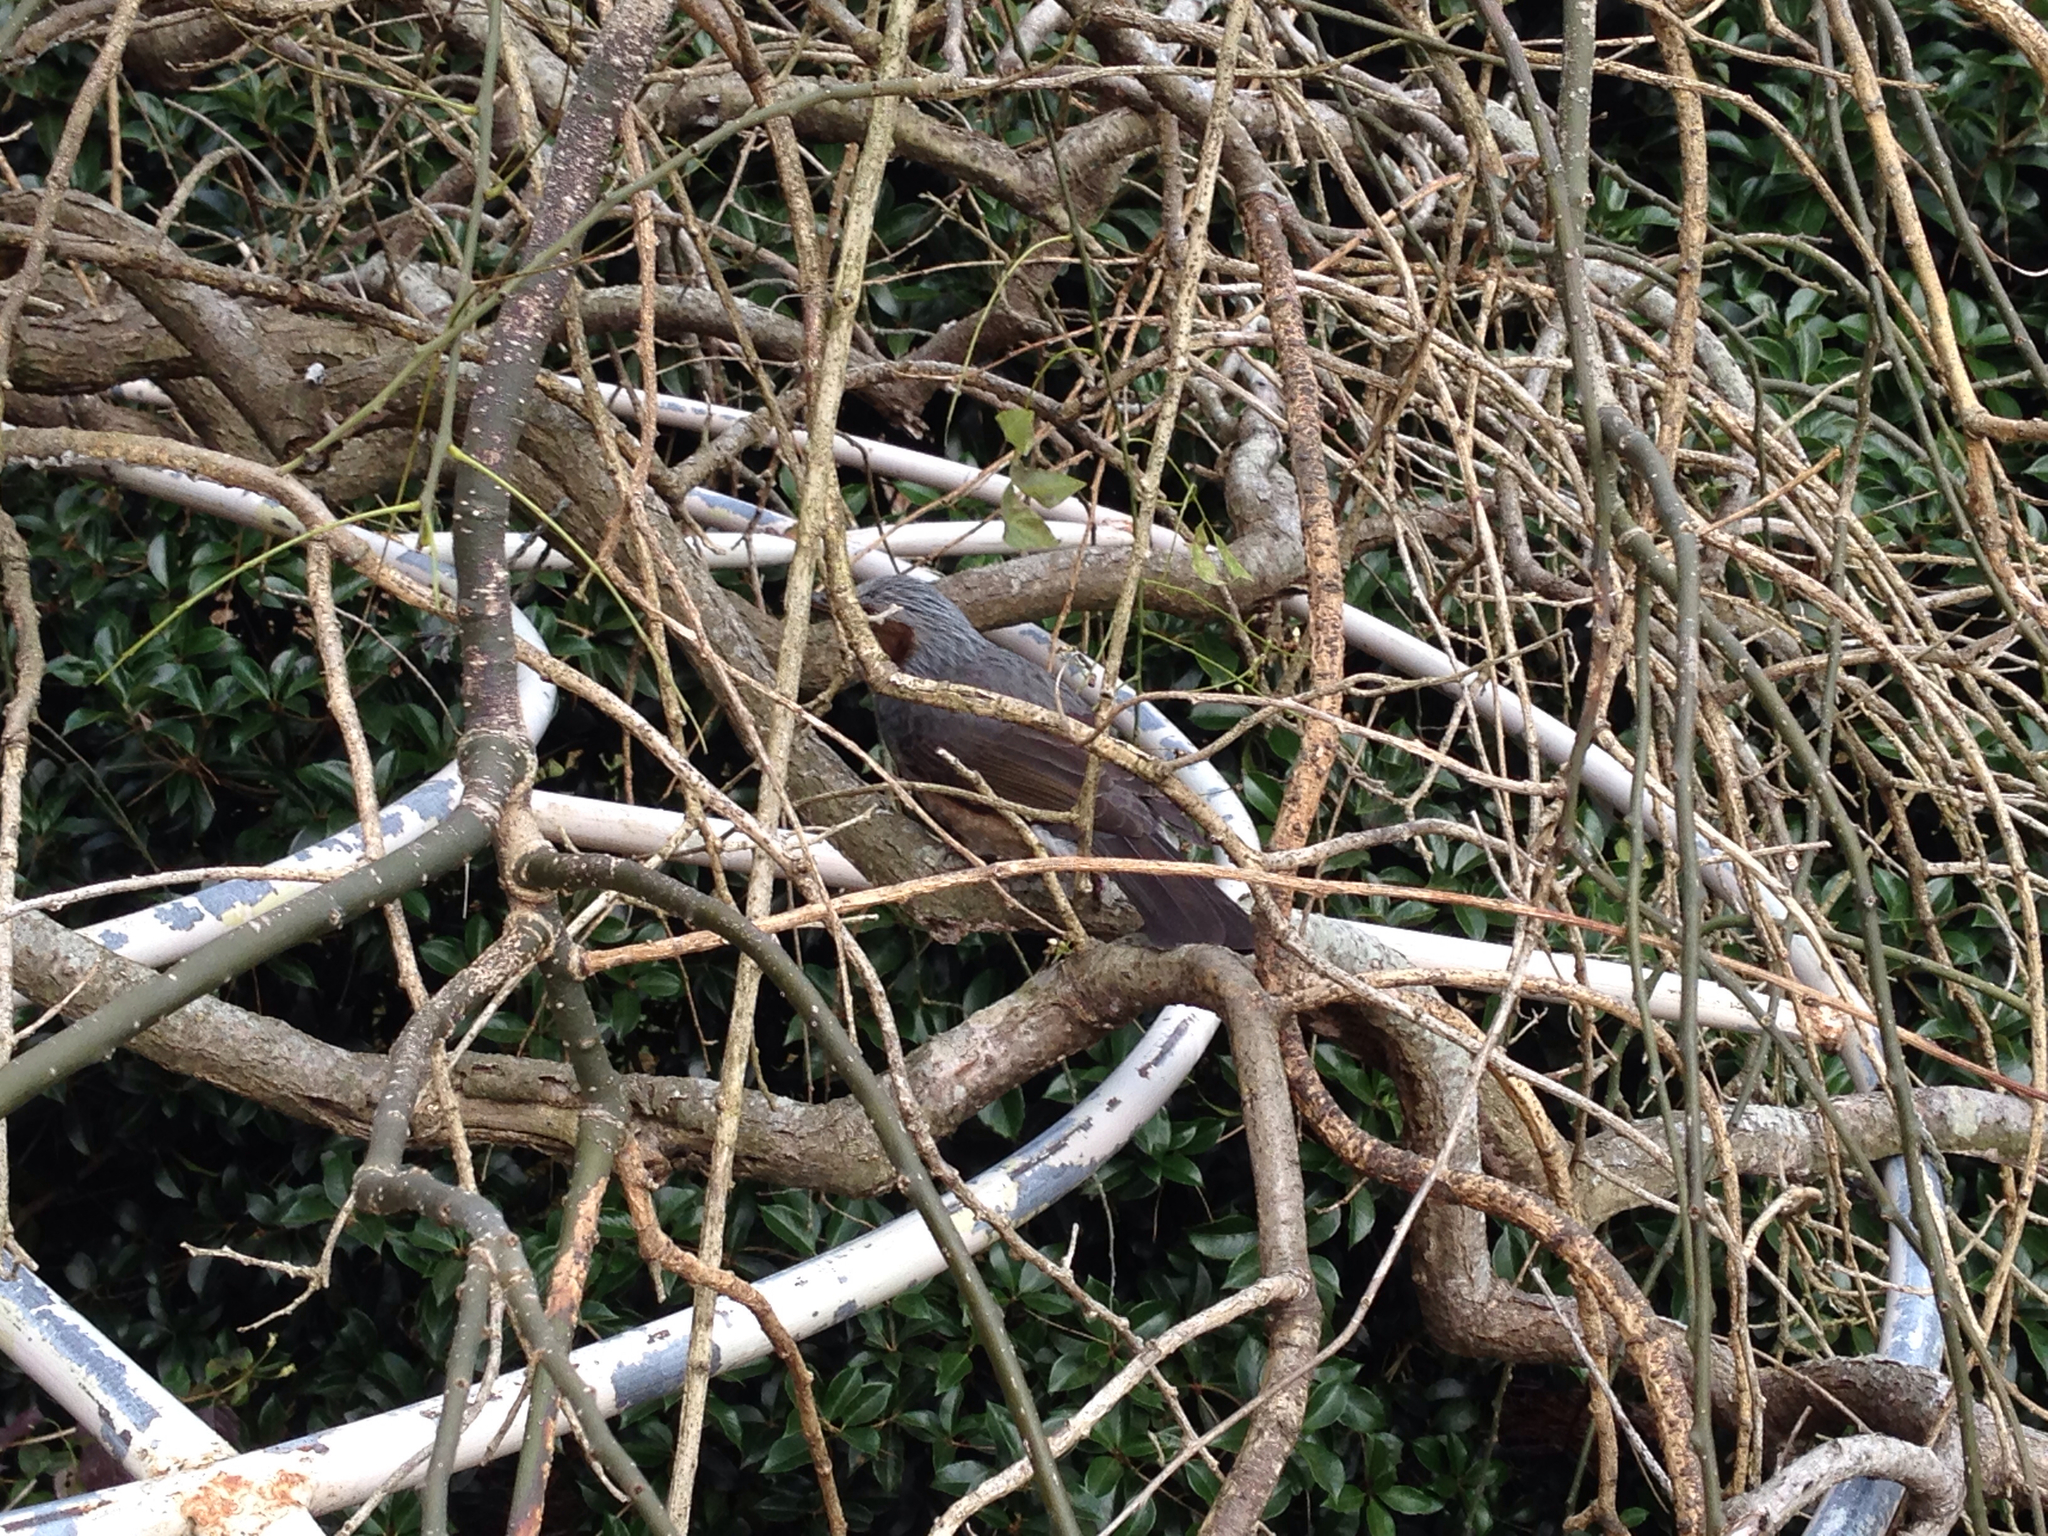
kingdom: Animalia
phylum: Chordata
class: Aves
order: Passeriformes
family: Pycnonotidae
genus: Hypsipetes
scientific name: Hypsipetes amaurotis
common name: Brown-eared bulbul
